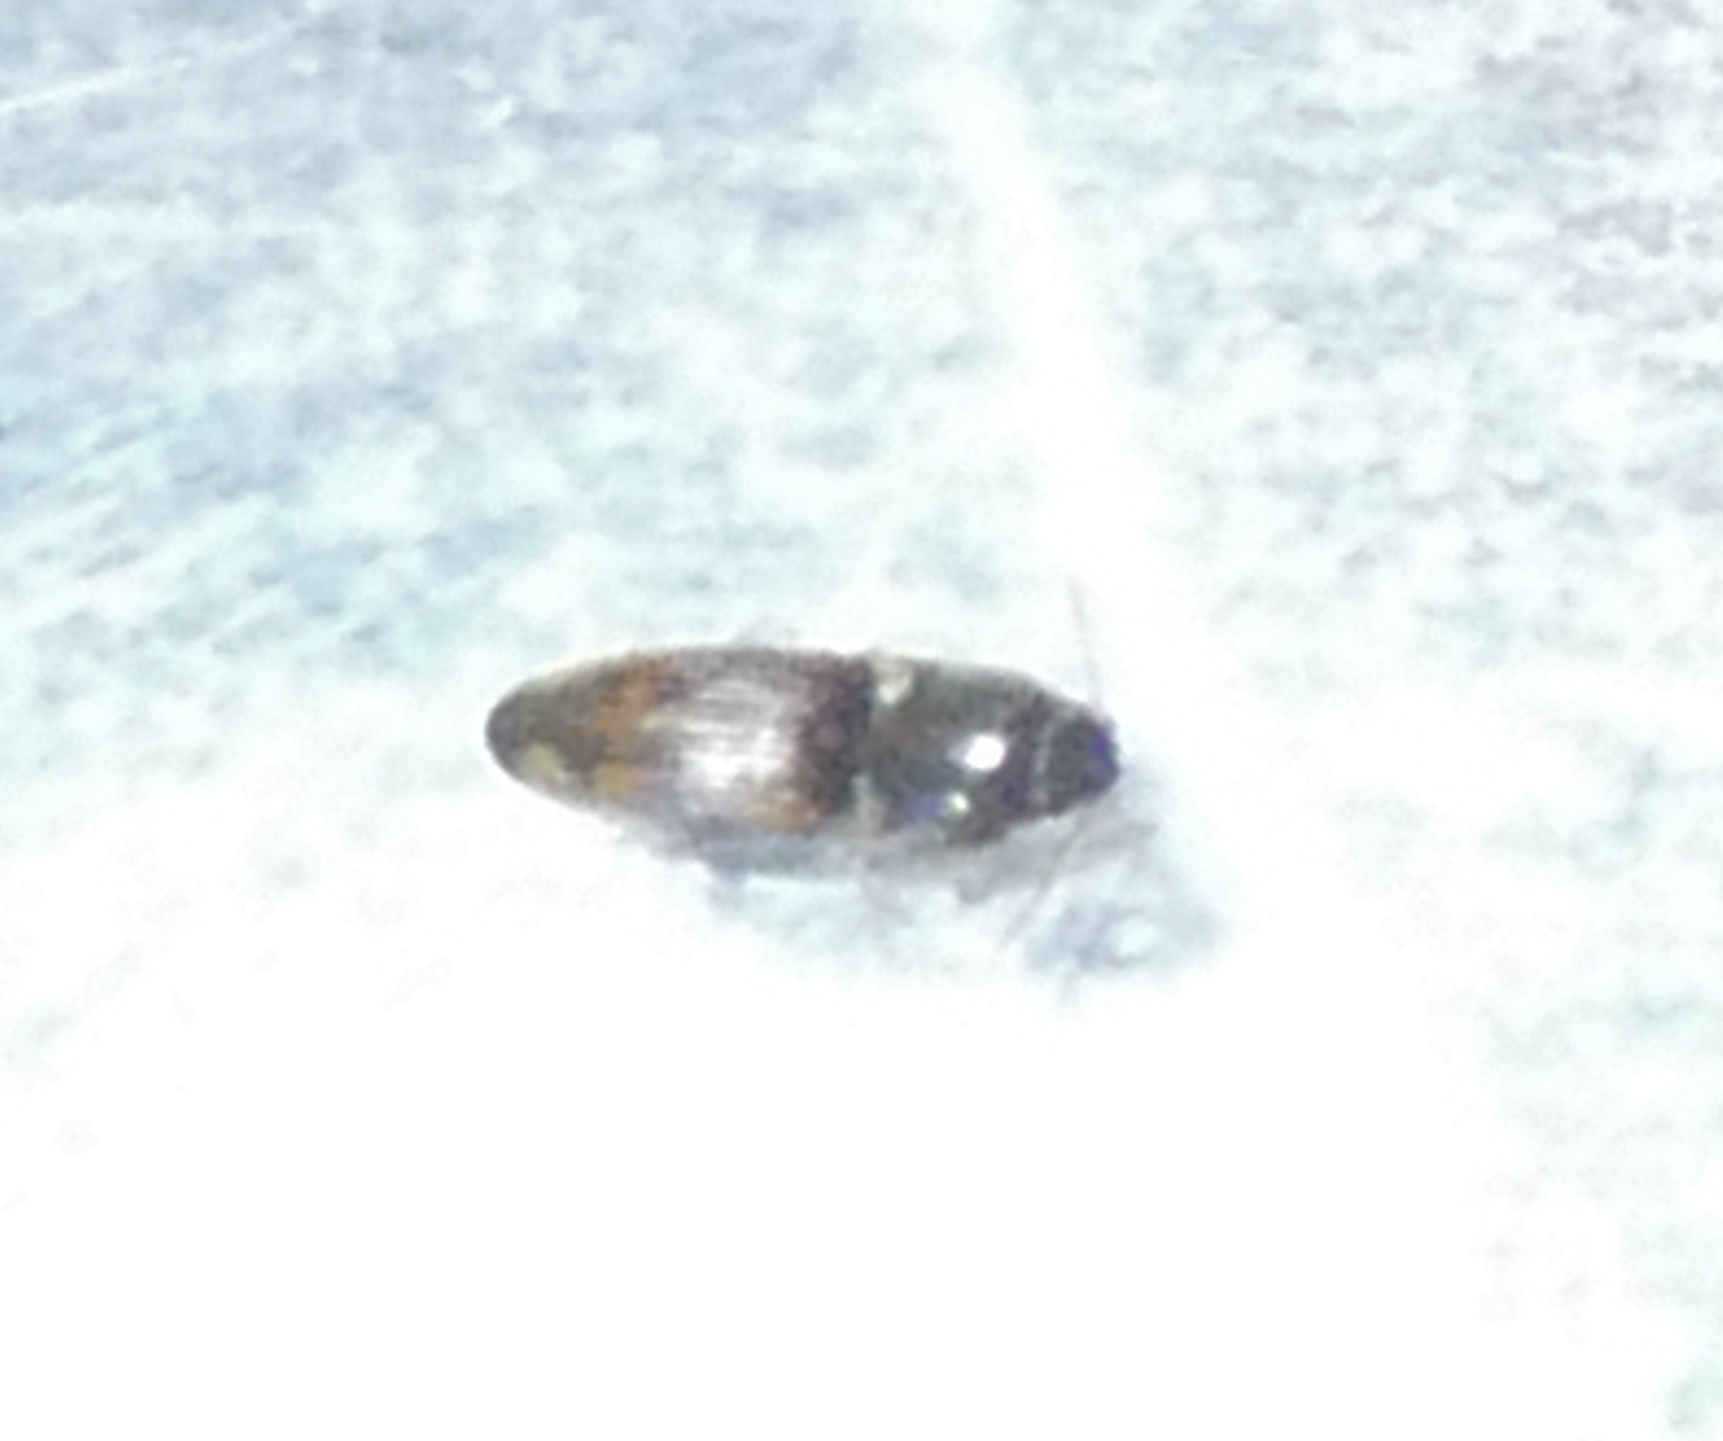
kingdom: Animalia
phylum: Arthropoda
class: Insecta
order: Coleoptera
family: Elateridae
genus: Monocrepidius
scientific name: Monocrepidius bellus
